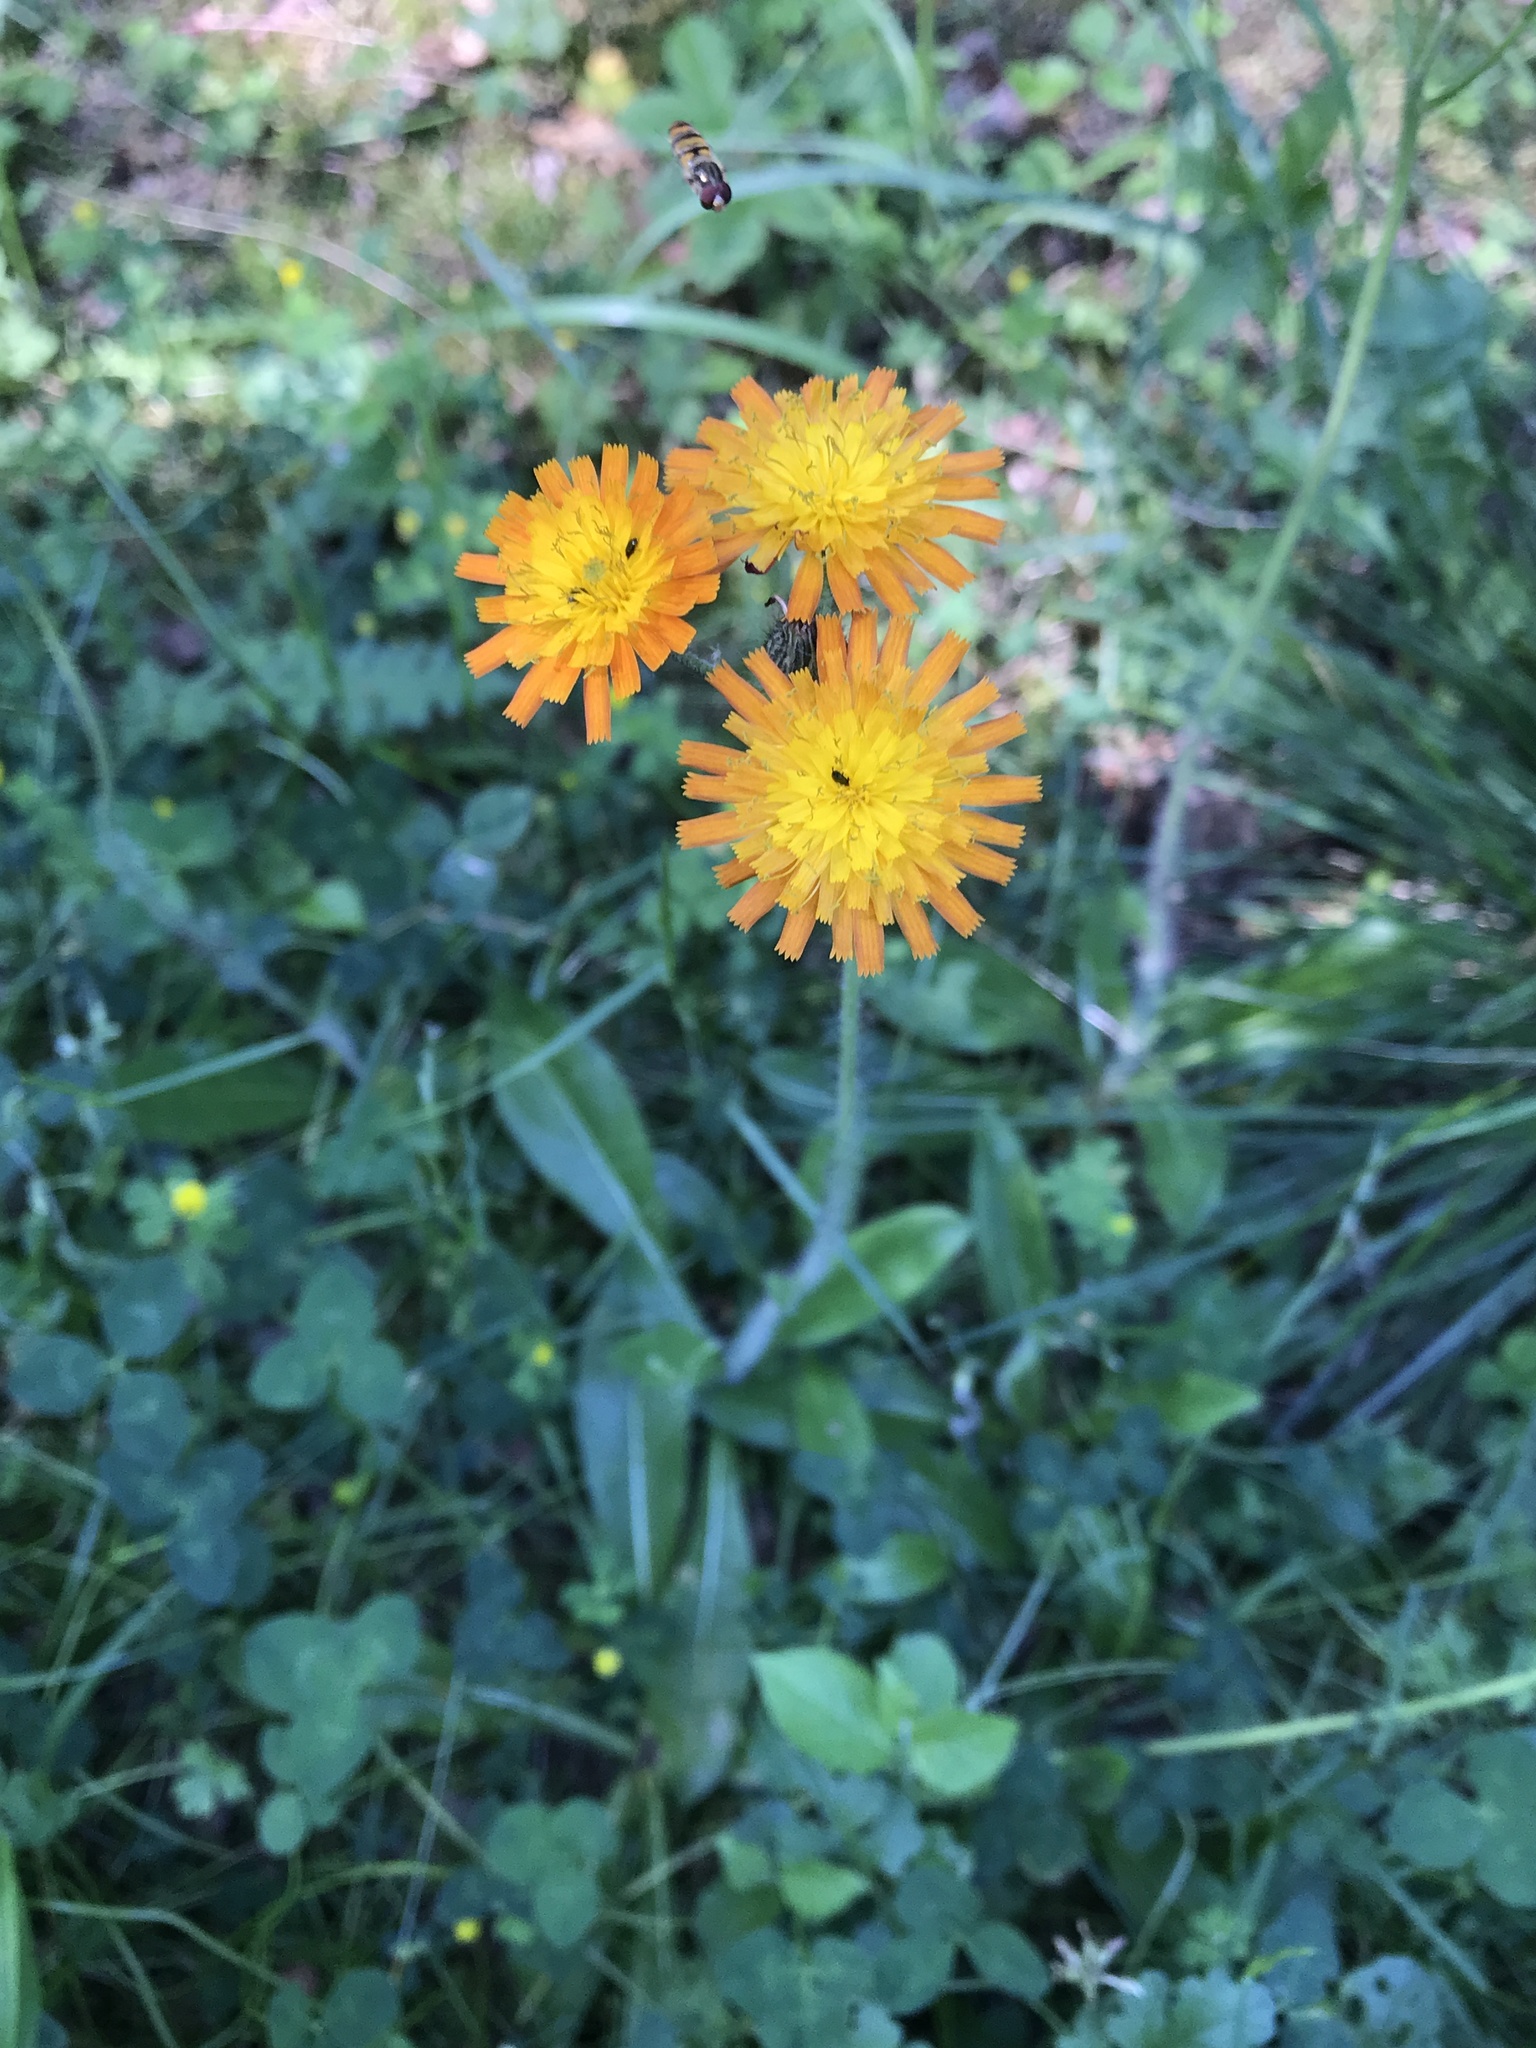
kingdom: Plantae
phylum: Tracheophyta
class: Magnoliopsida
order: Asterales
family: Asteraceae
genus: Pilosella
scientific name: Pilosella aurantiaca
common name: Fox-and-cubs
